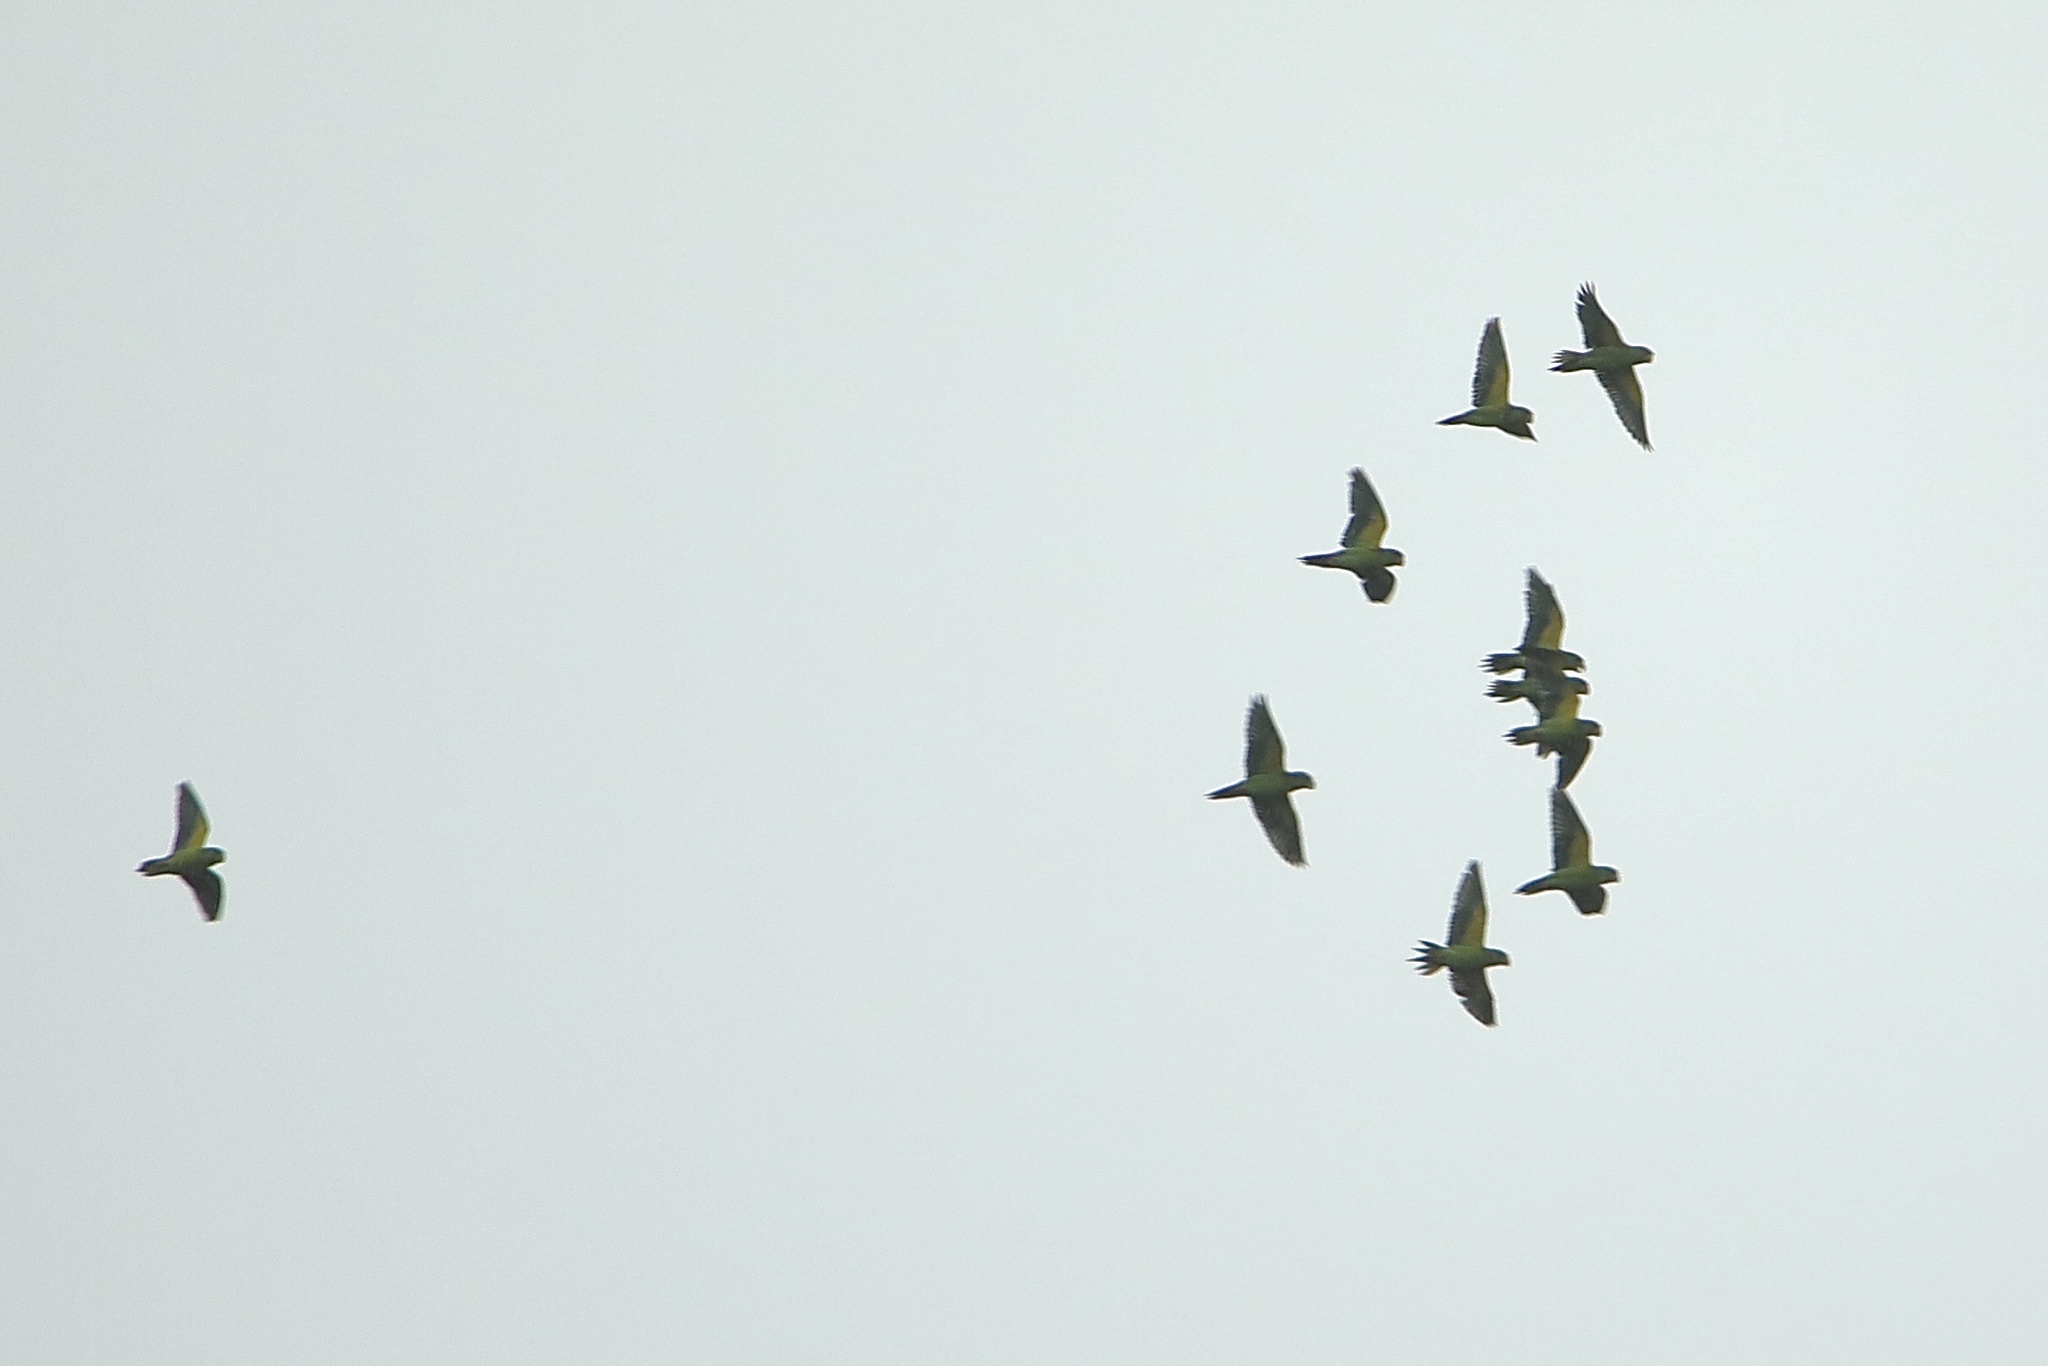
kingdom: Animalia
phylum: Chordata
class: Aves
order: Psittaciformes
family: Psittacidae
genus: Brotogeris
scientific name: Brotogeris jugularis
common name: Orange-chinned parakeet
